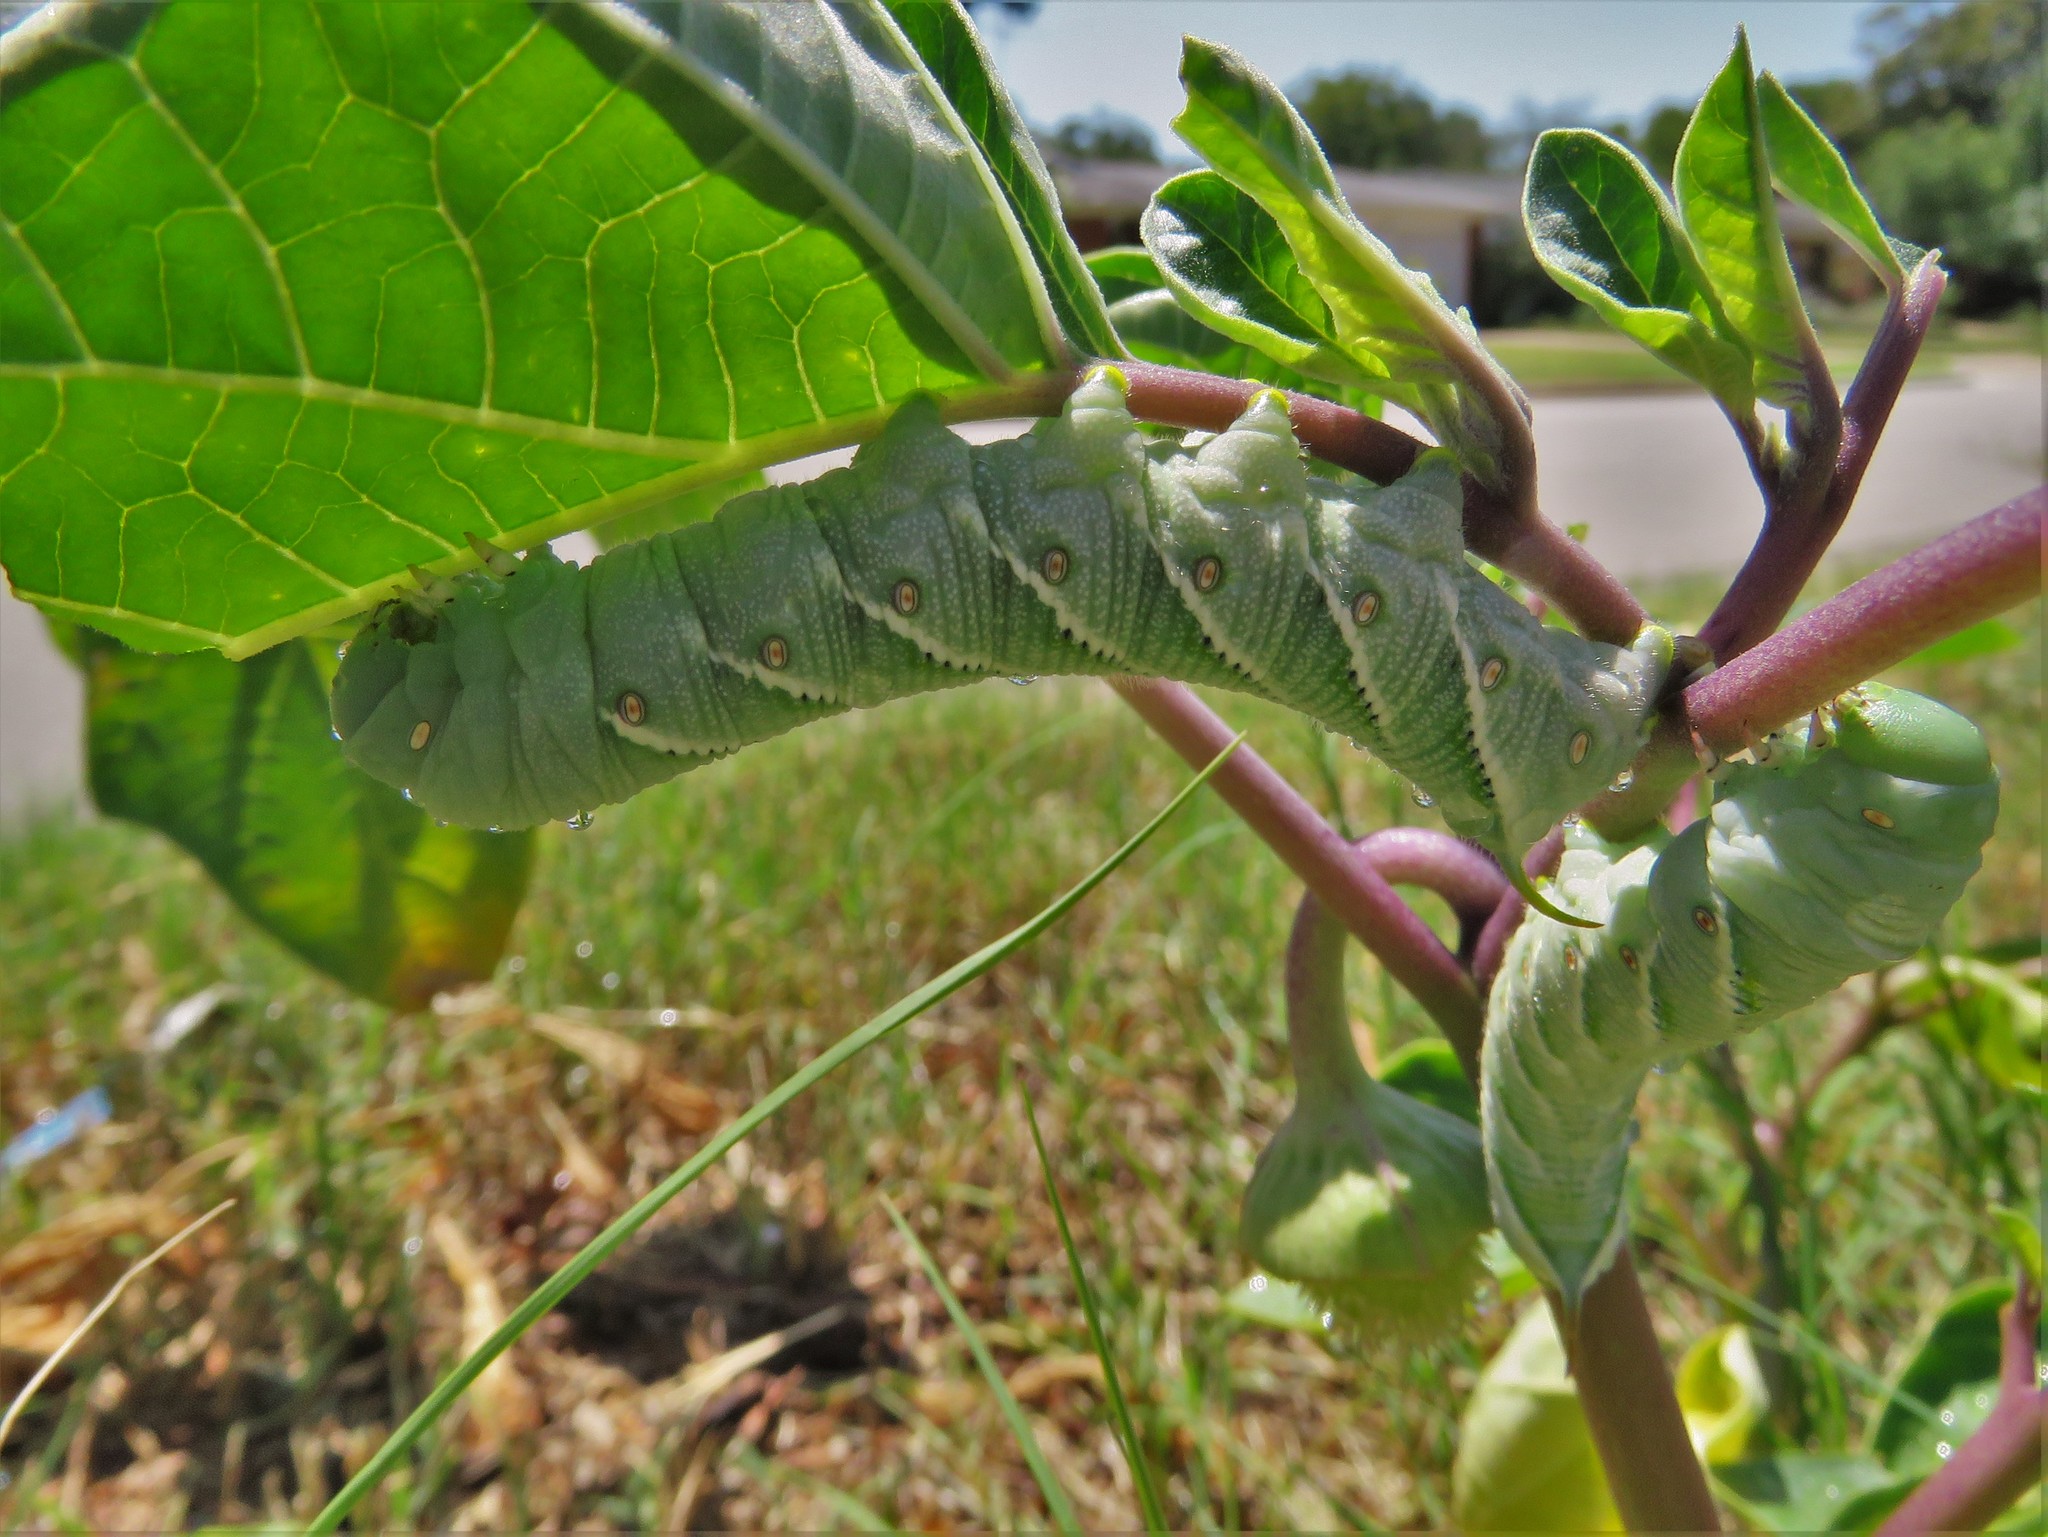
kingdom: Animalia
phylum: Arthropoda
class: Insecta
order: Lepidoptera
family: Sphingidae
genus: Manduca
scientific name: Manduca sexta
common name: Carolina sphinx
